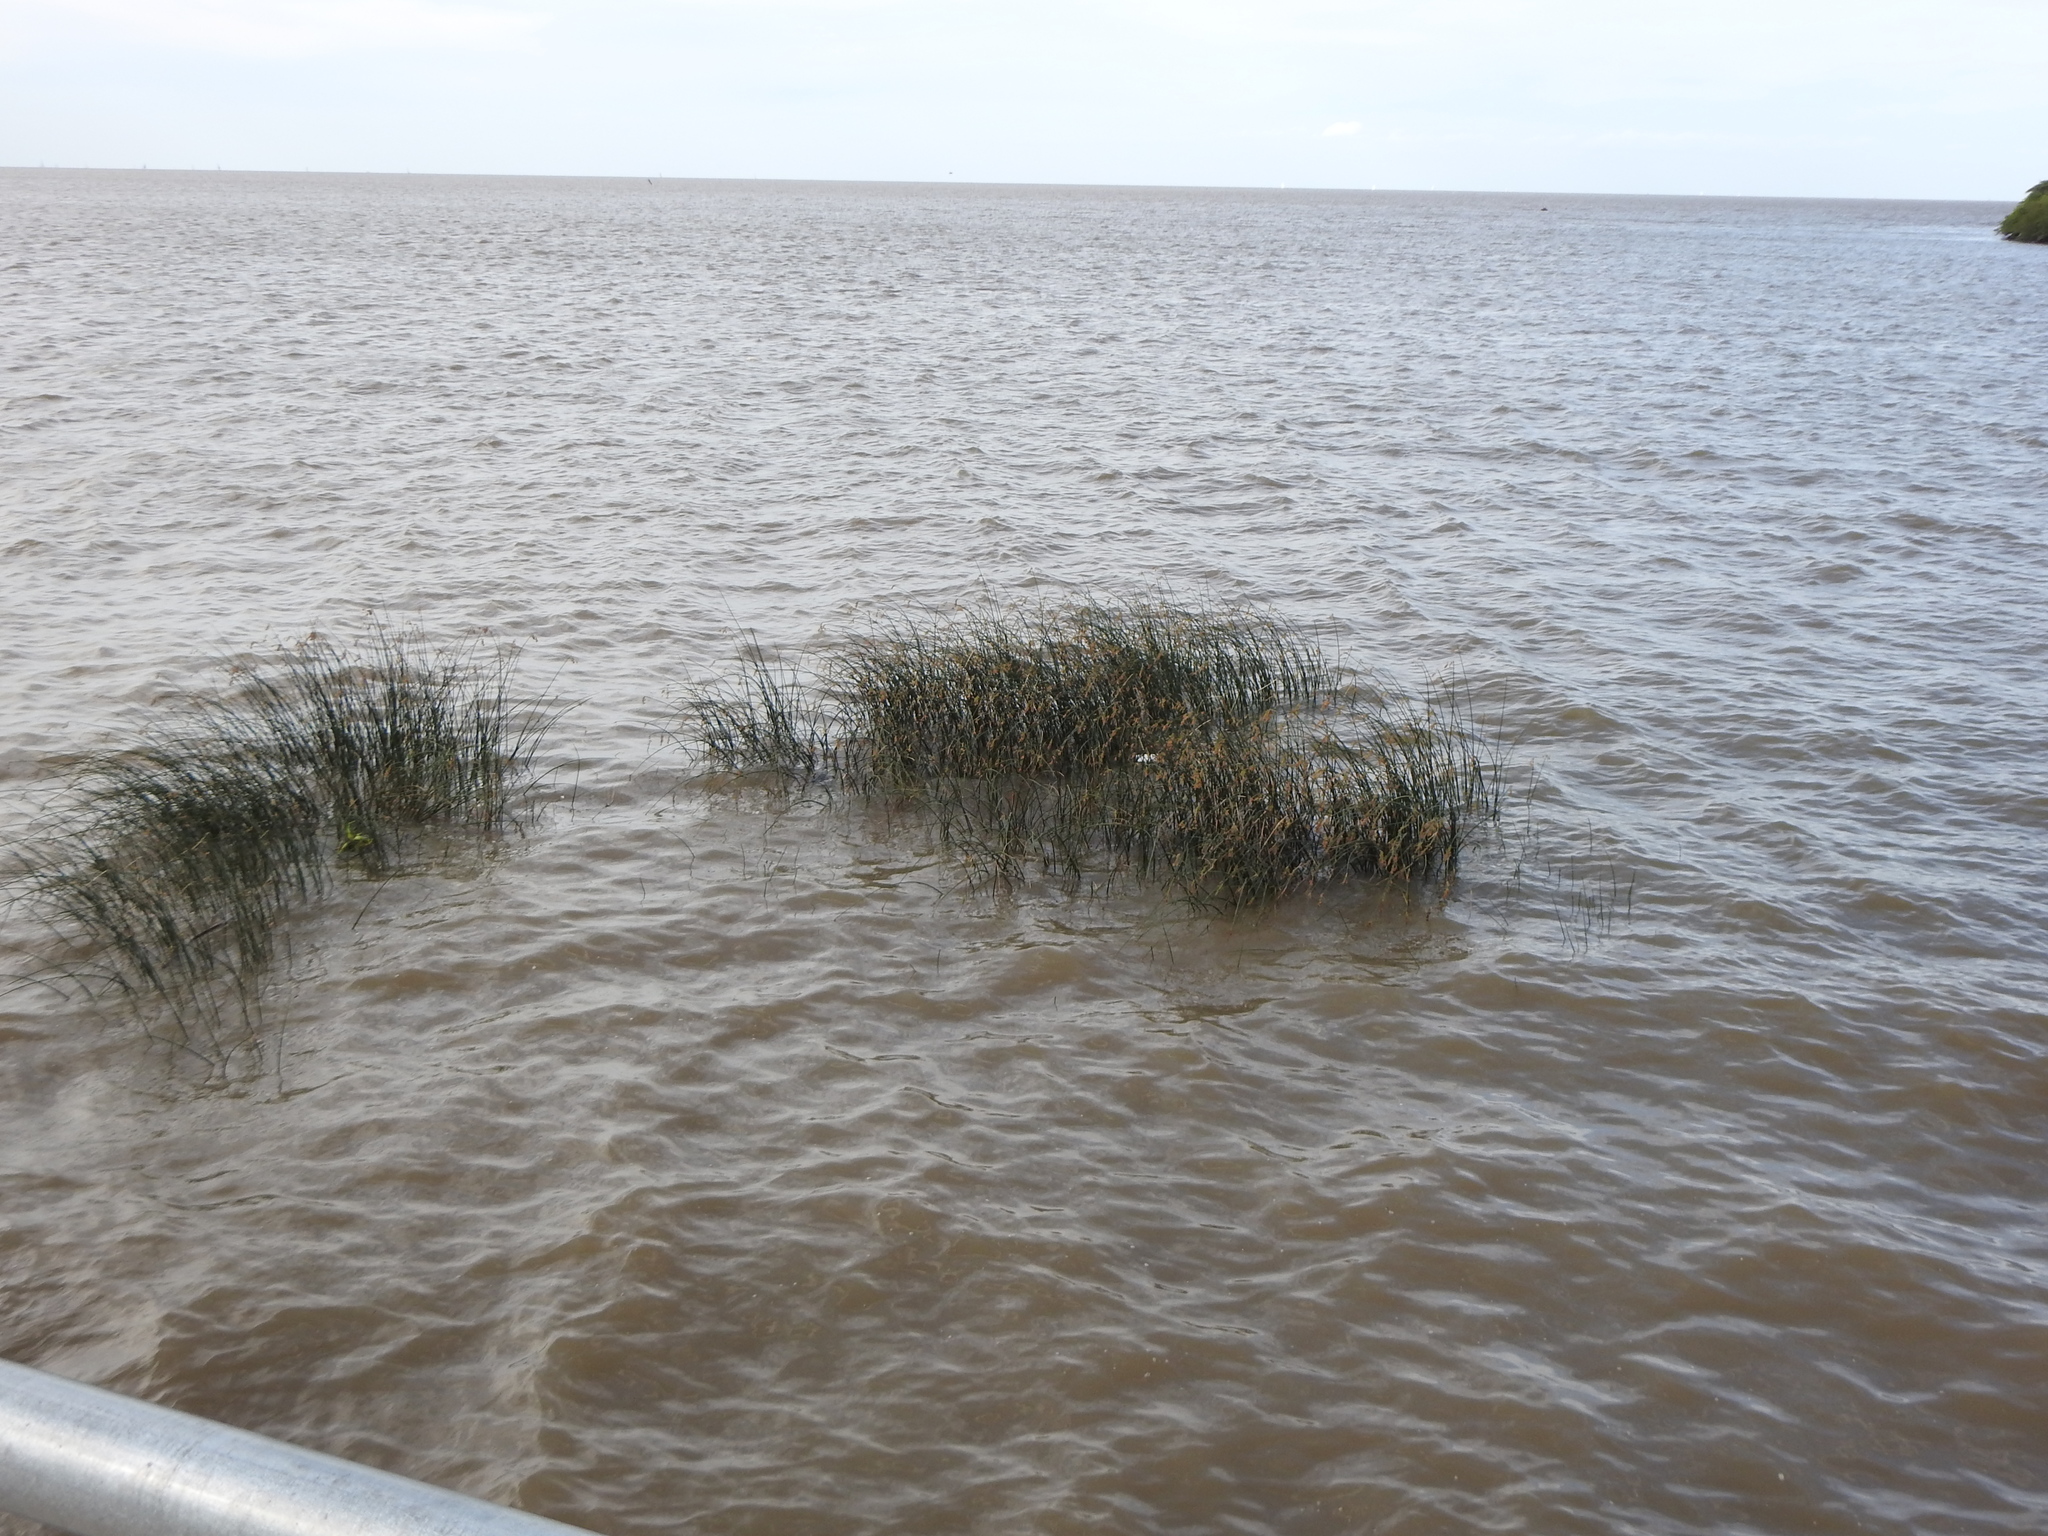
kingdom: Plantae
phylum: Tracheophyta
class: Liliopsida
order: Poales
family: Cyperaceae
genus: Schoenoplectus
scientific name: Schoenoplectus californicus
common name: California bulrush
